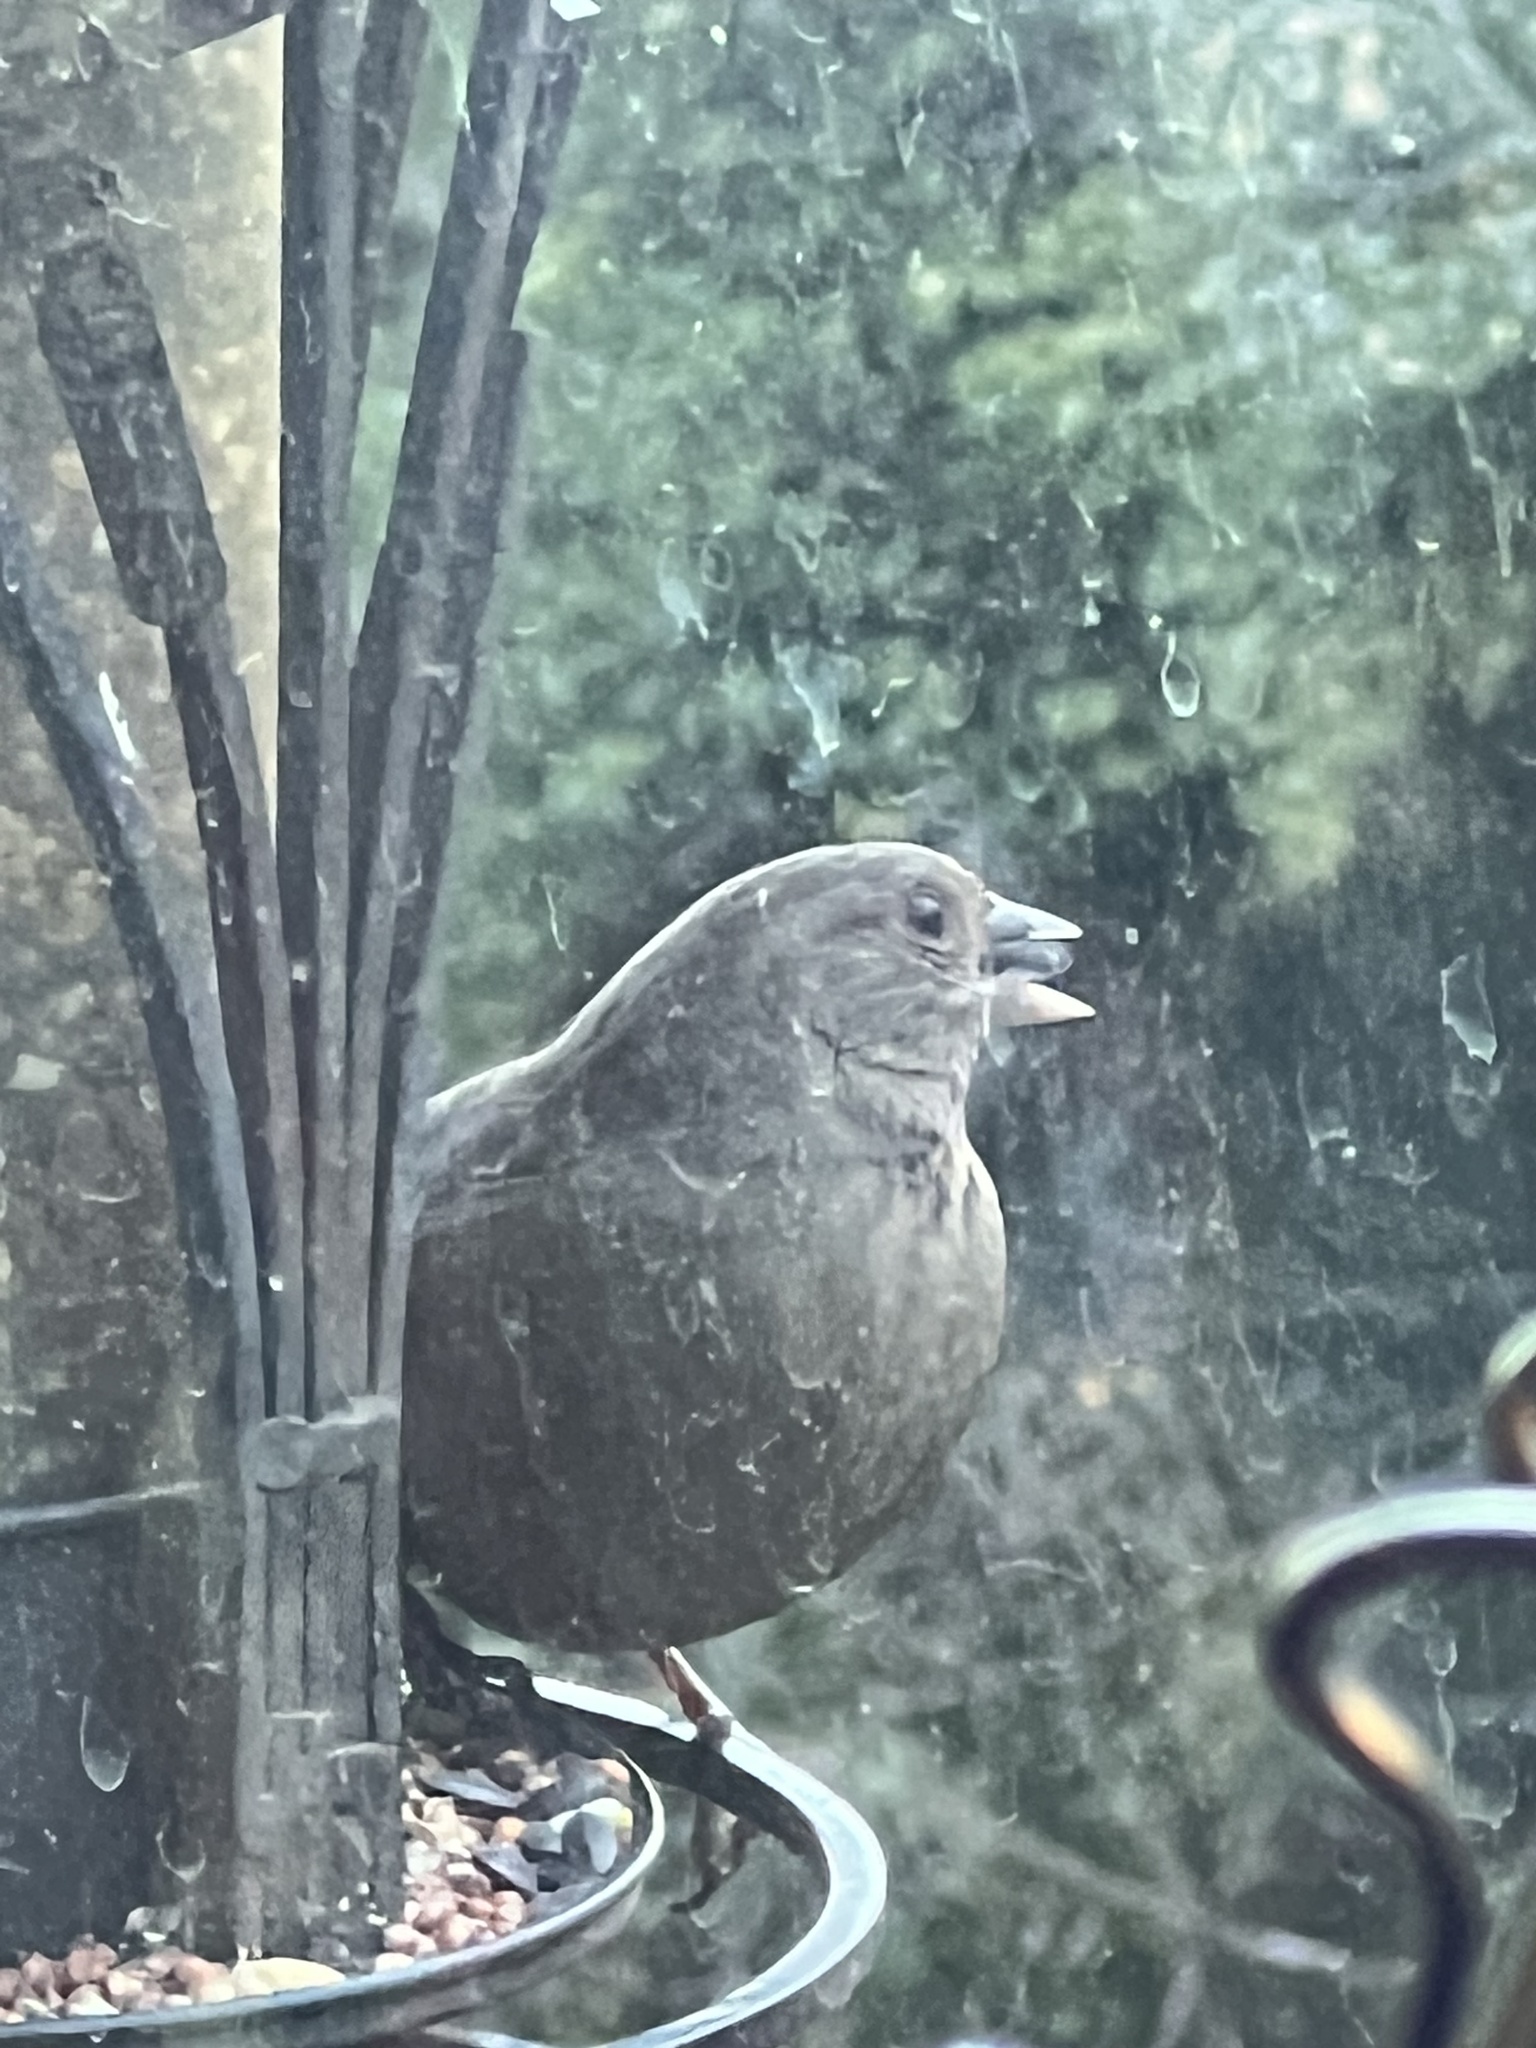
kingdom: Animalia
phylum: Chordata
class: Aves
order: Passeriformes
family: Passerellidae
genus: Melozone
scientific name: Melozone crissalis
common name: California towhee
